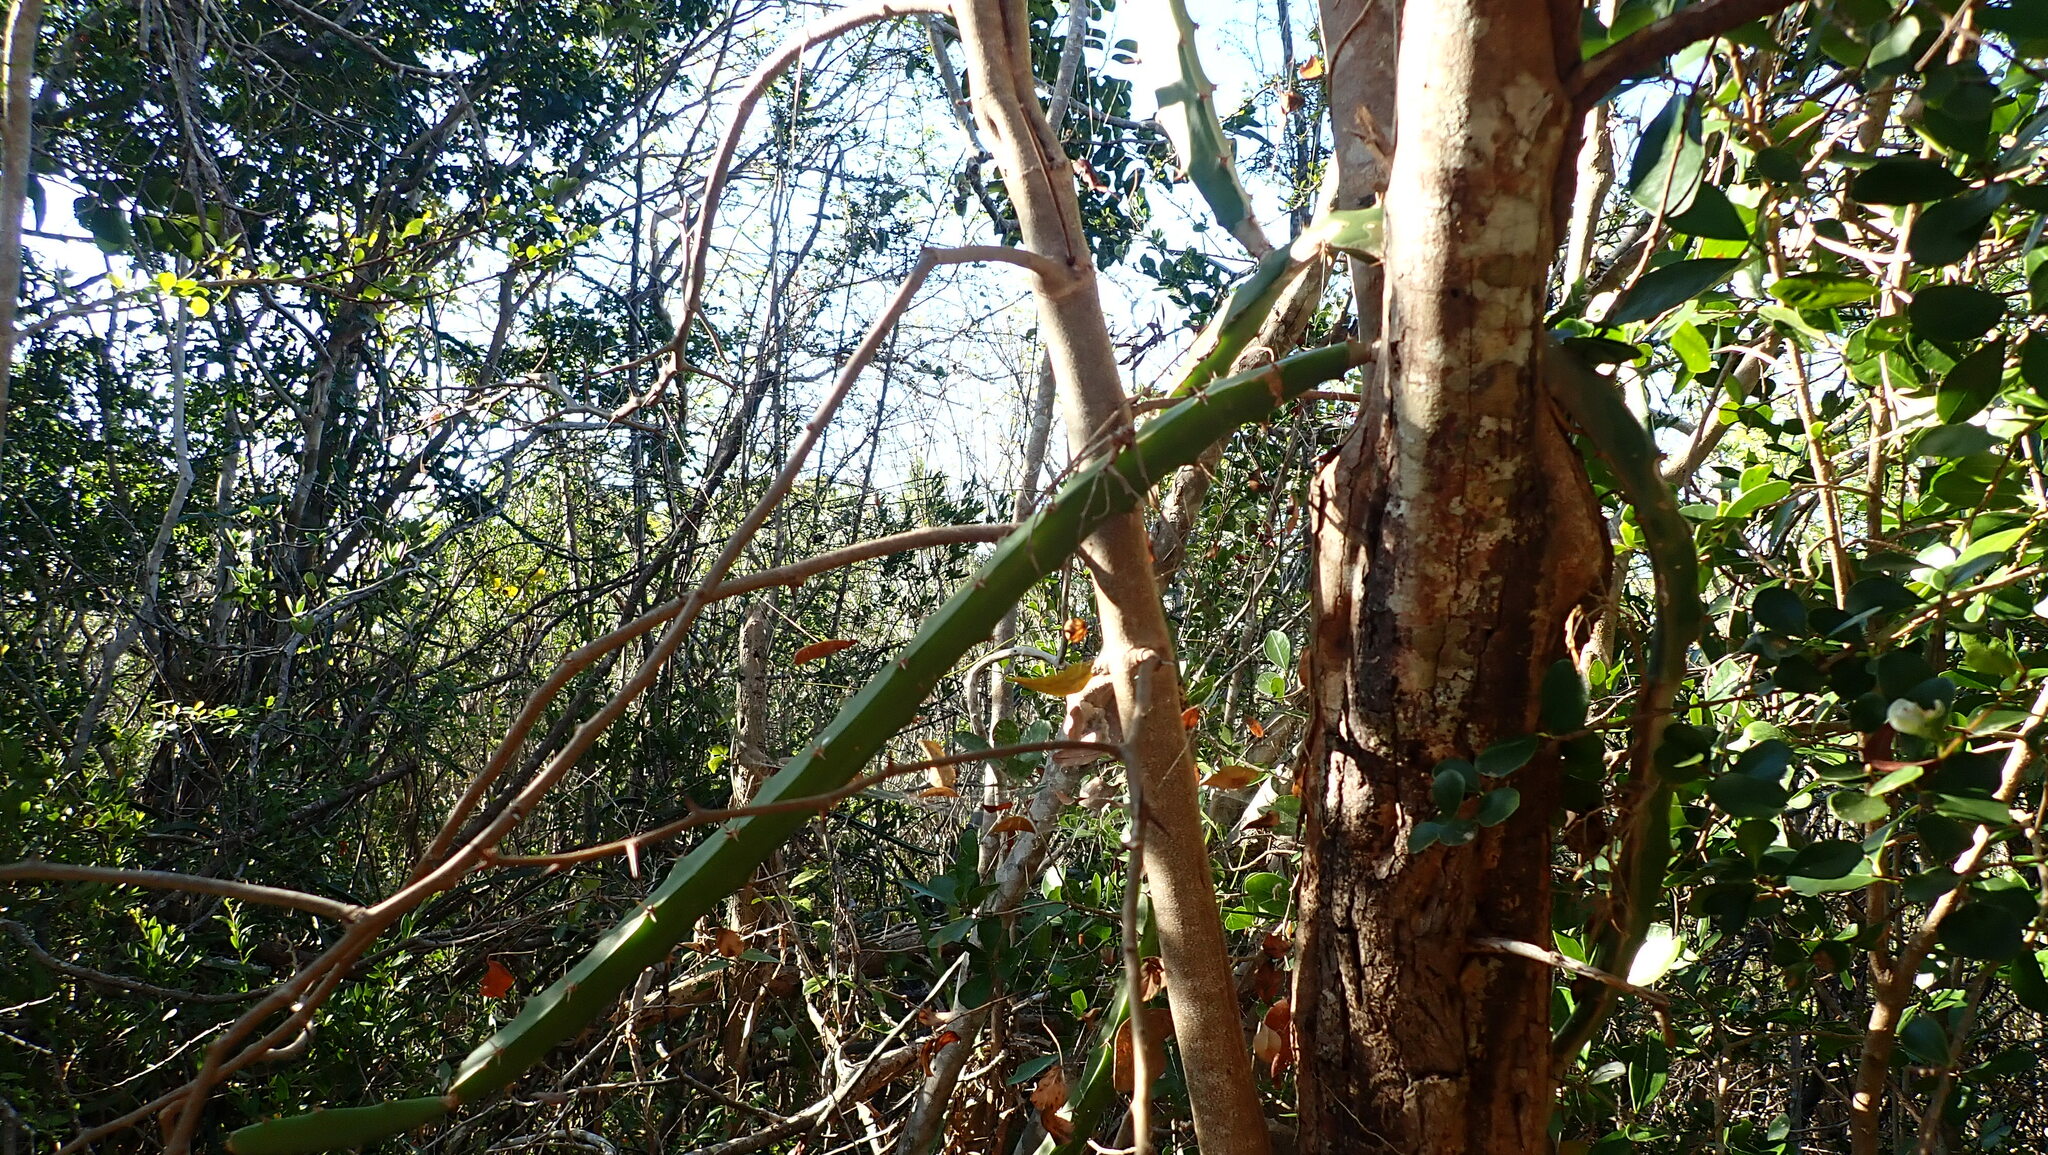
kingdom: Plantae
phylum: Tracheophyta
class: Magnoliopsida
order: Caryophyllales
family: Cactaceae
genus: Selenicereus
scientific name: Selenicereus triangularis
